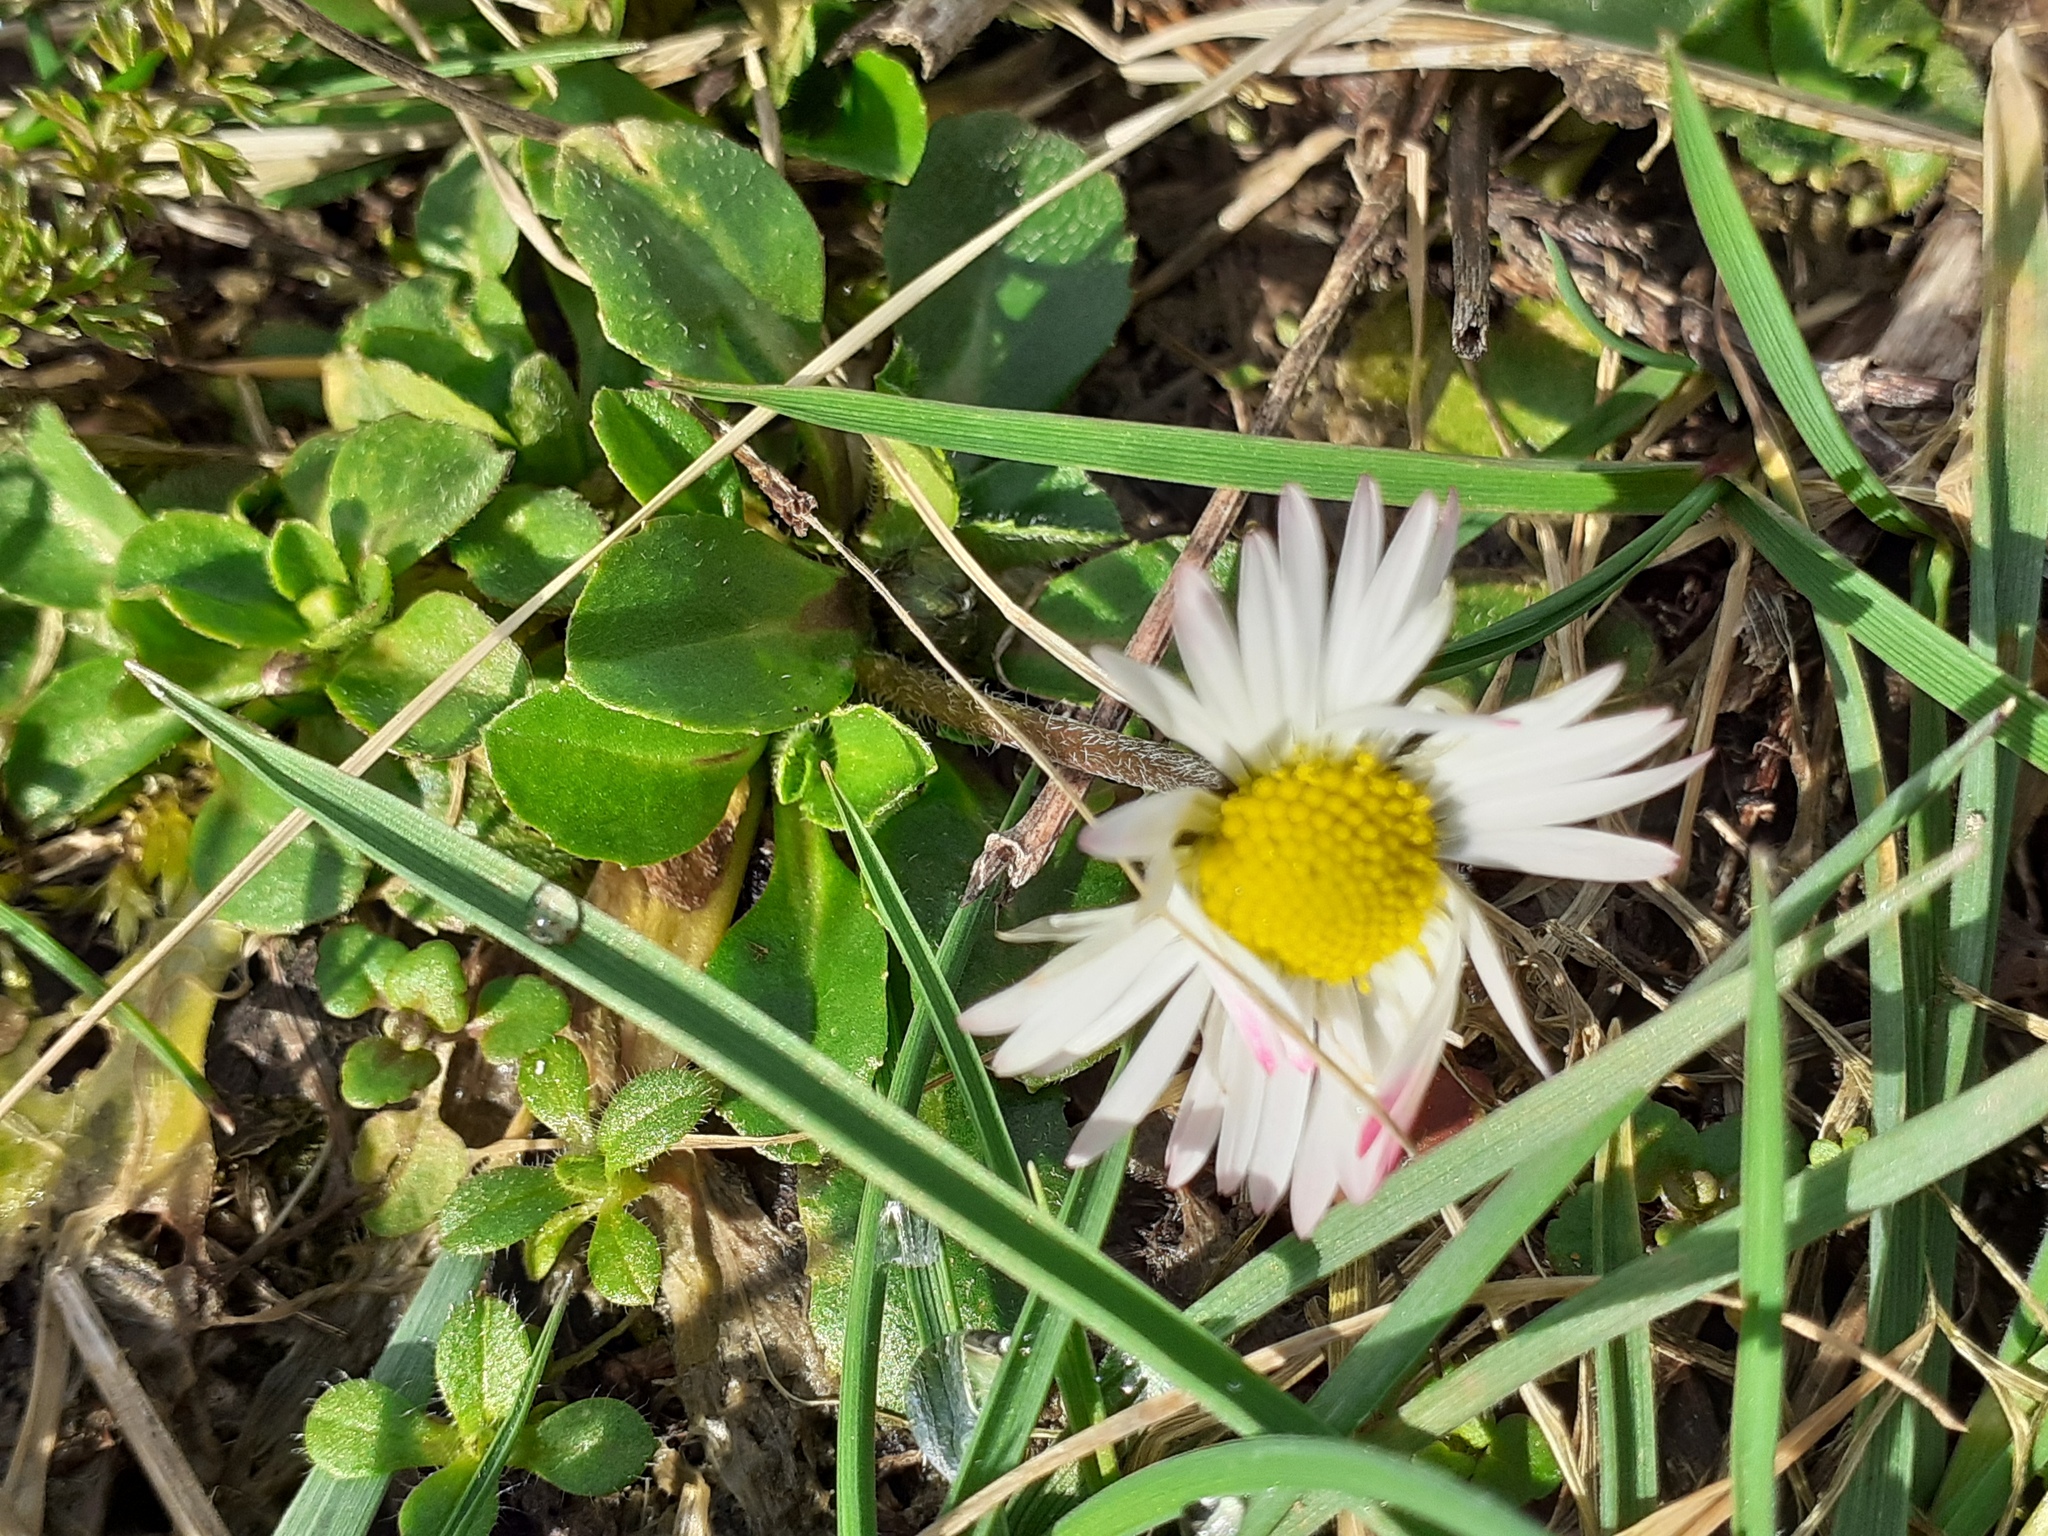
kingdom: Plantae
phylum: Tracheophyta
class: Magnoliopsida
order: Asterales
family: Asteraceae
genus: Bellis
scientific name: Bellis perennis
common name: Lawndaisy
